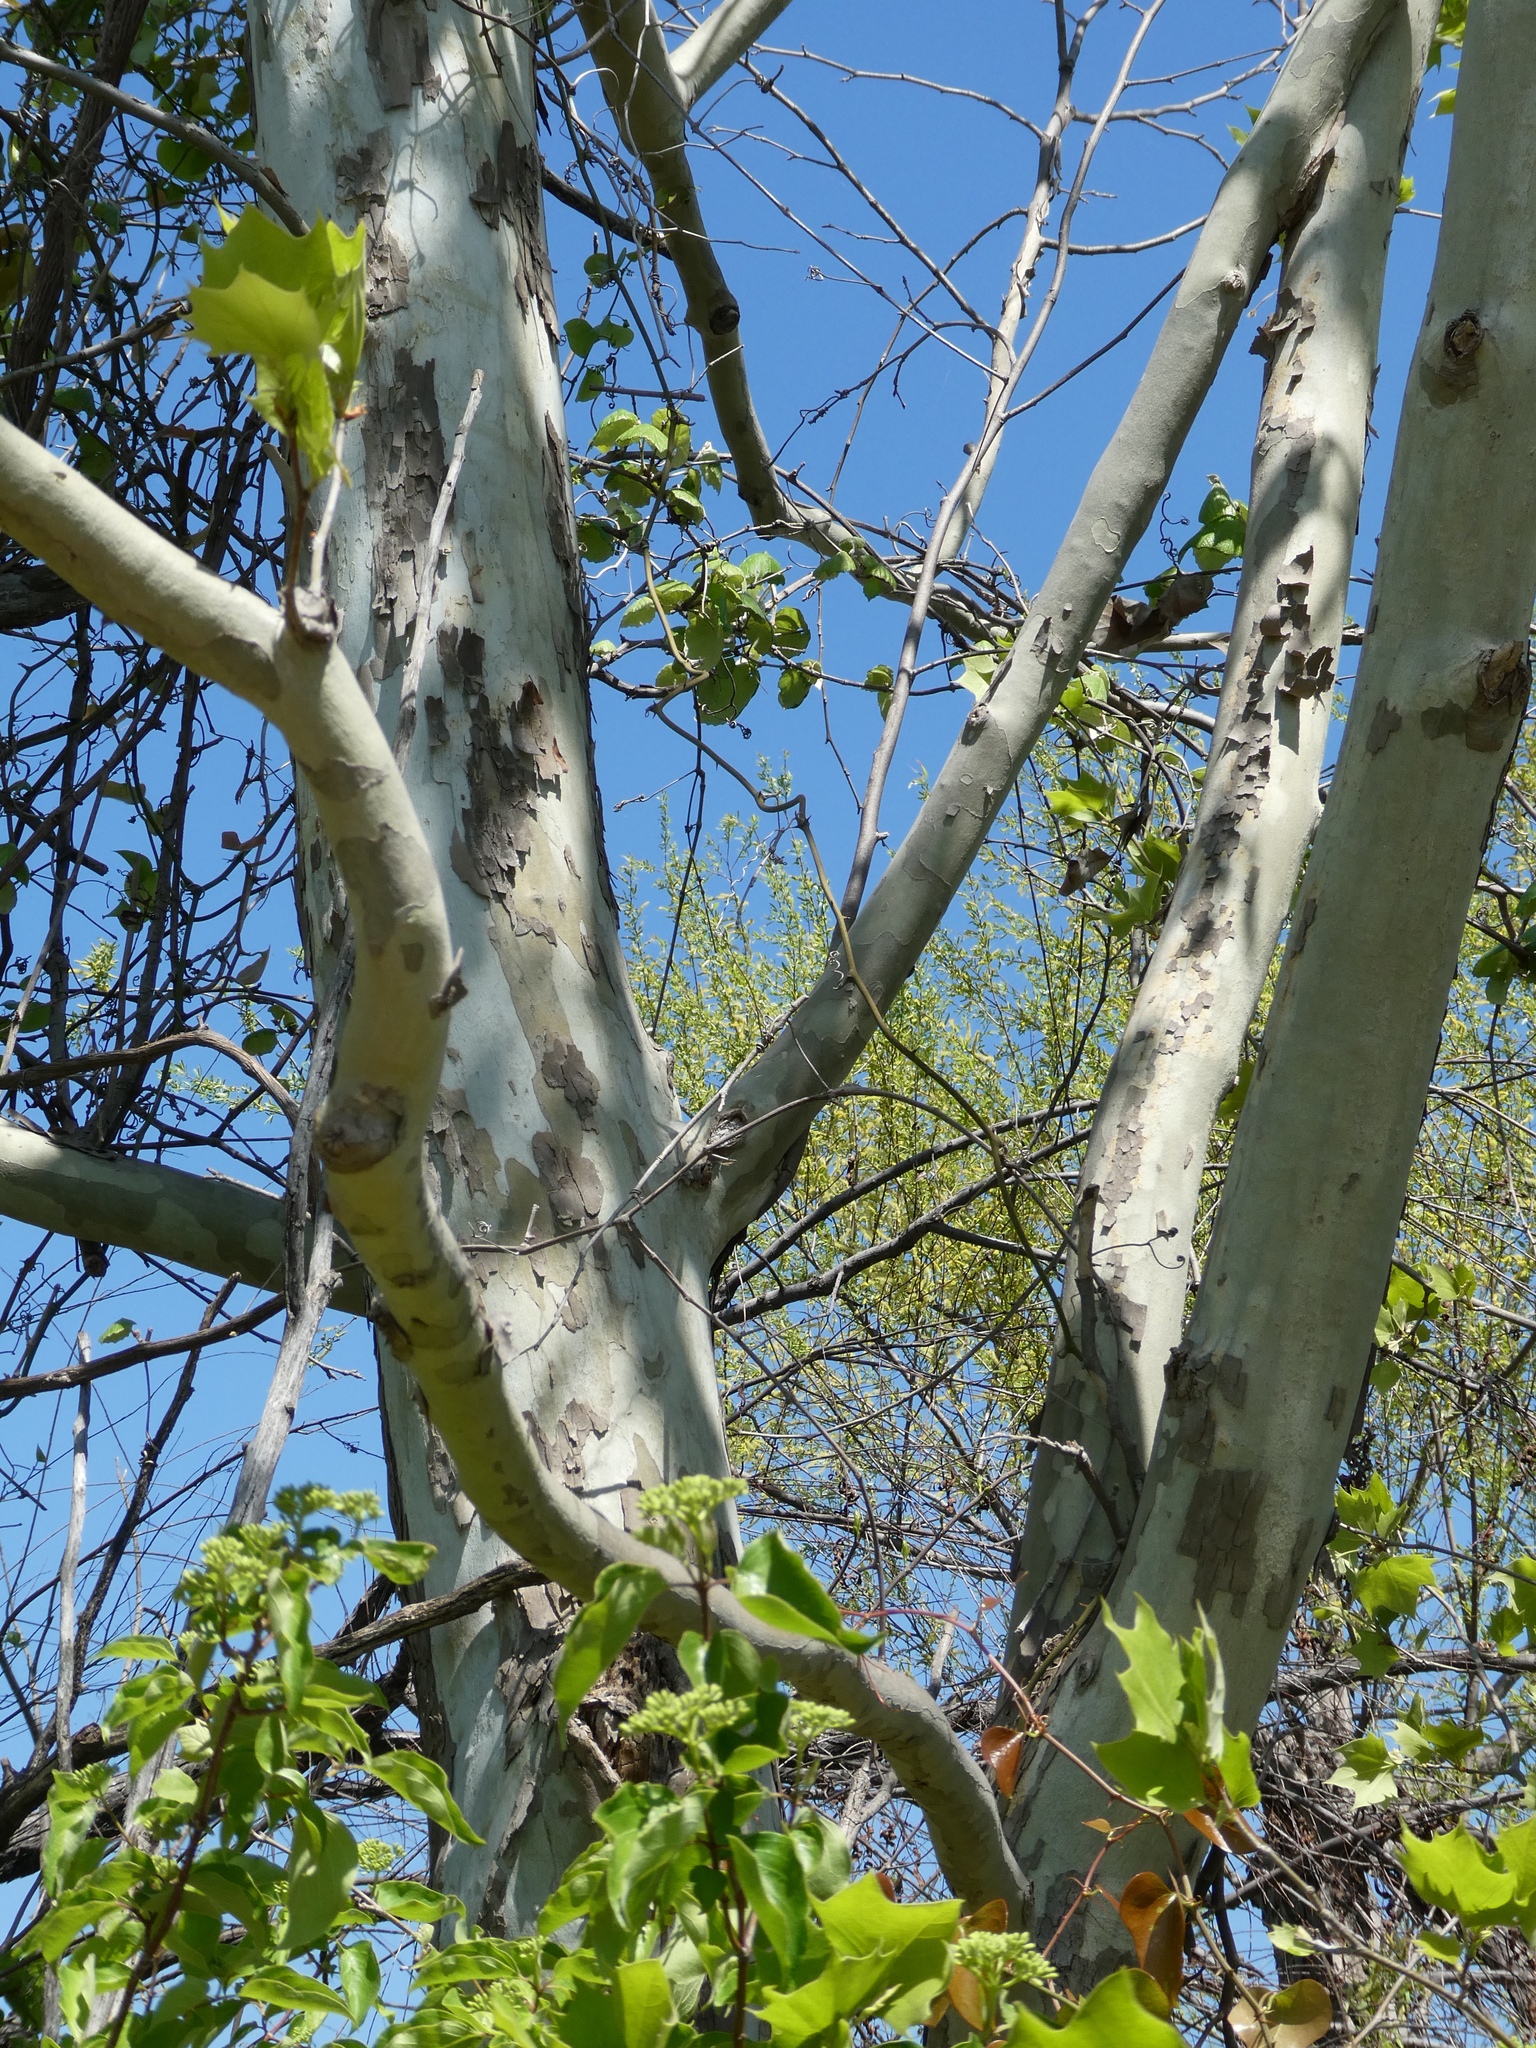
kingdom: Plantae
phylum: Tracheophyta
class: Magnoliopsida
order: Proteales
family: Platanaceae
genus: Platanus
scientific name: Platanus occidentalis
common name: American sycamore
